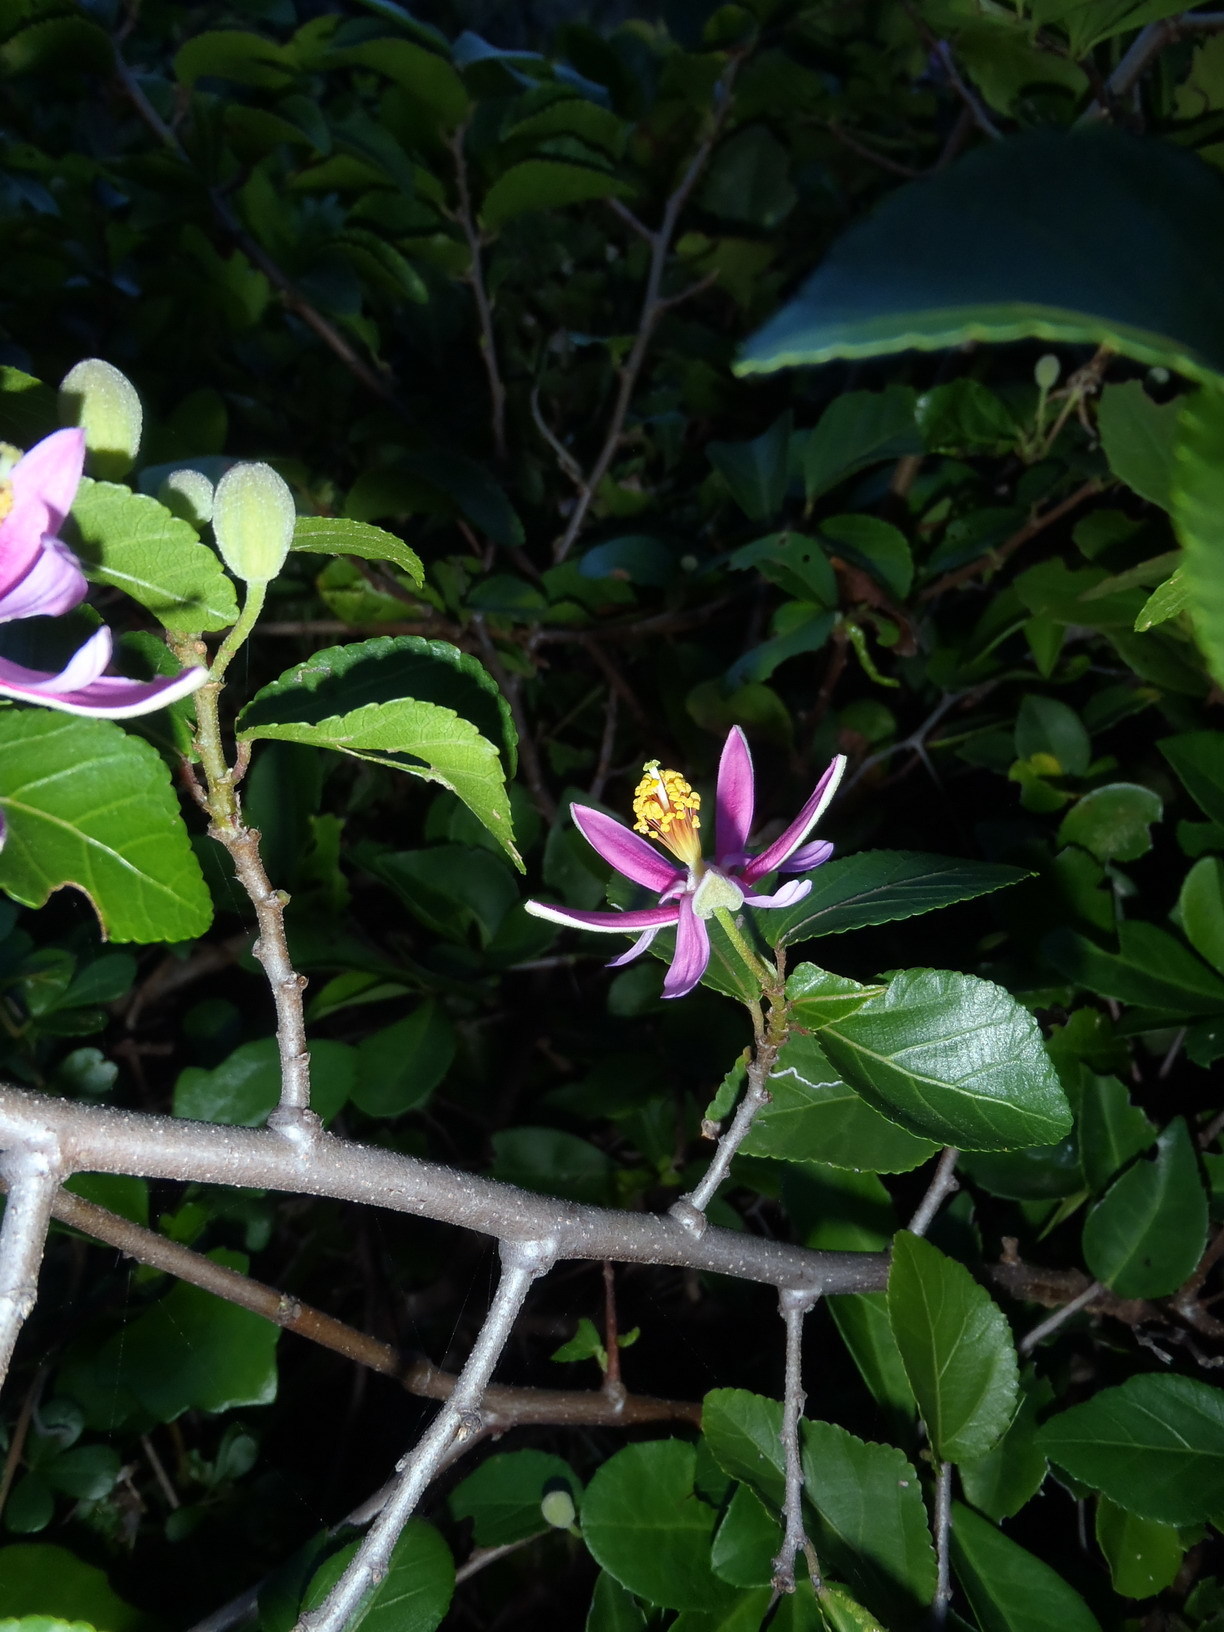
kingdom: Plantae
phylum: Tracheophyta
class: Magnoliopsida
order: Malvales
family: Malvaceae
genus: Grewia
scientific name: Grewia occidentalis
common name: Crossberry
